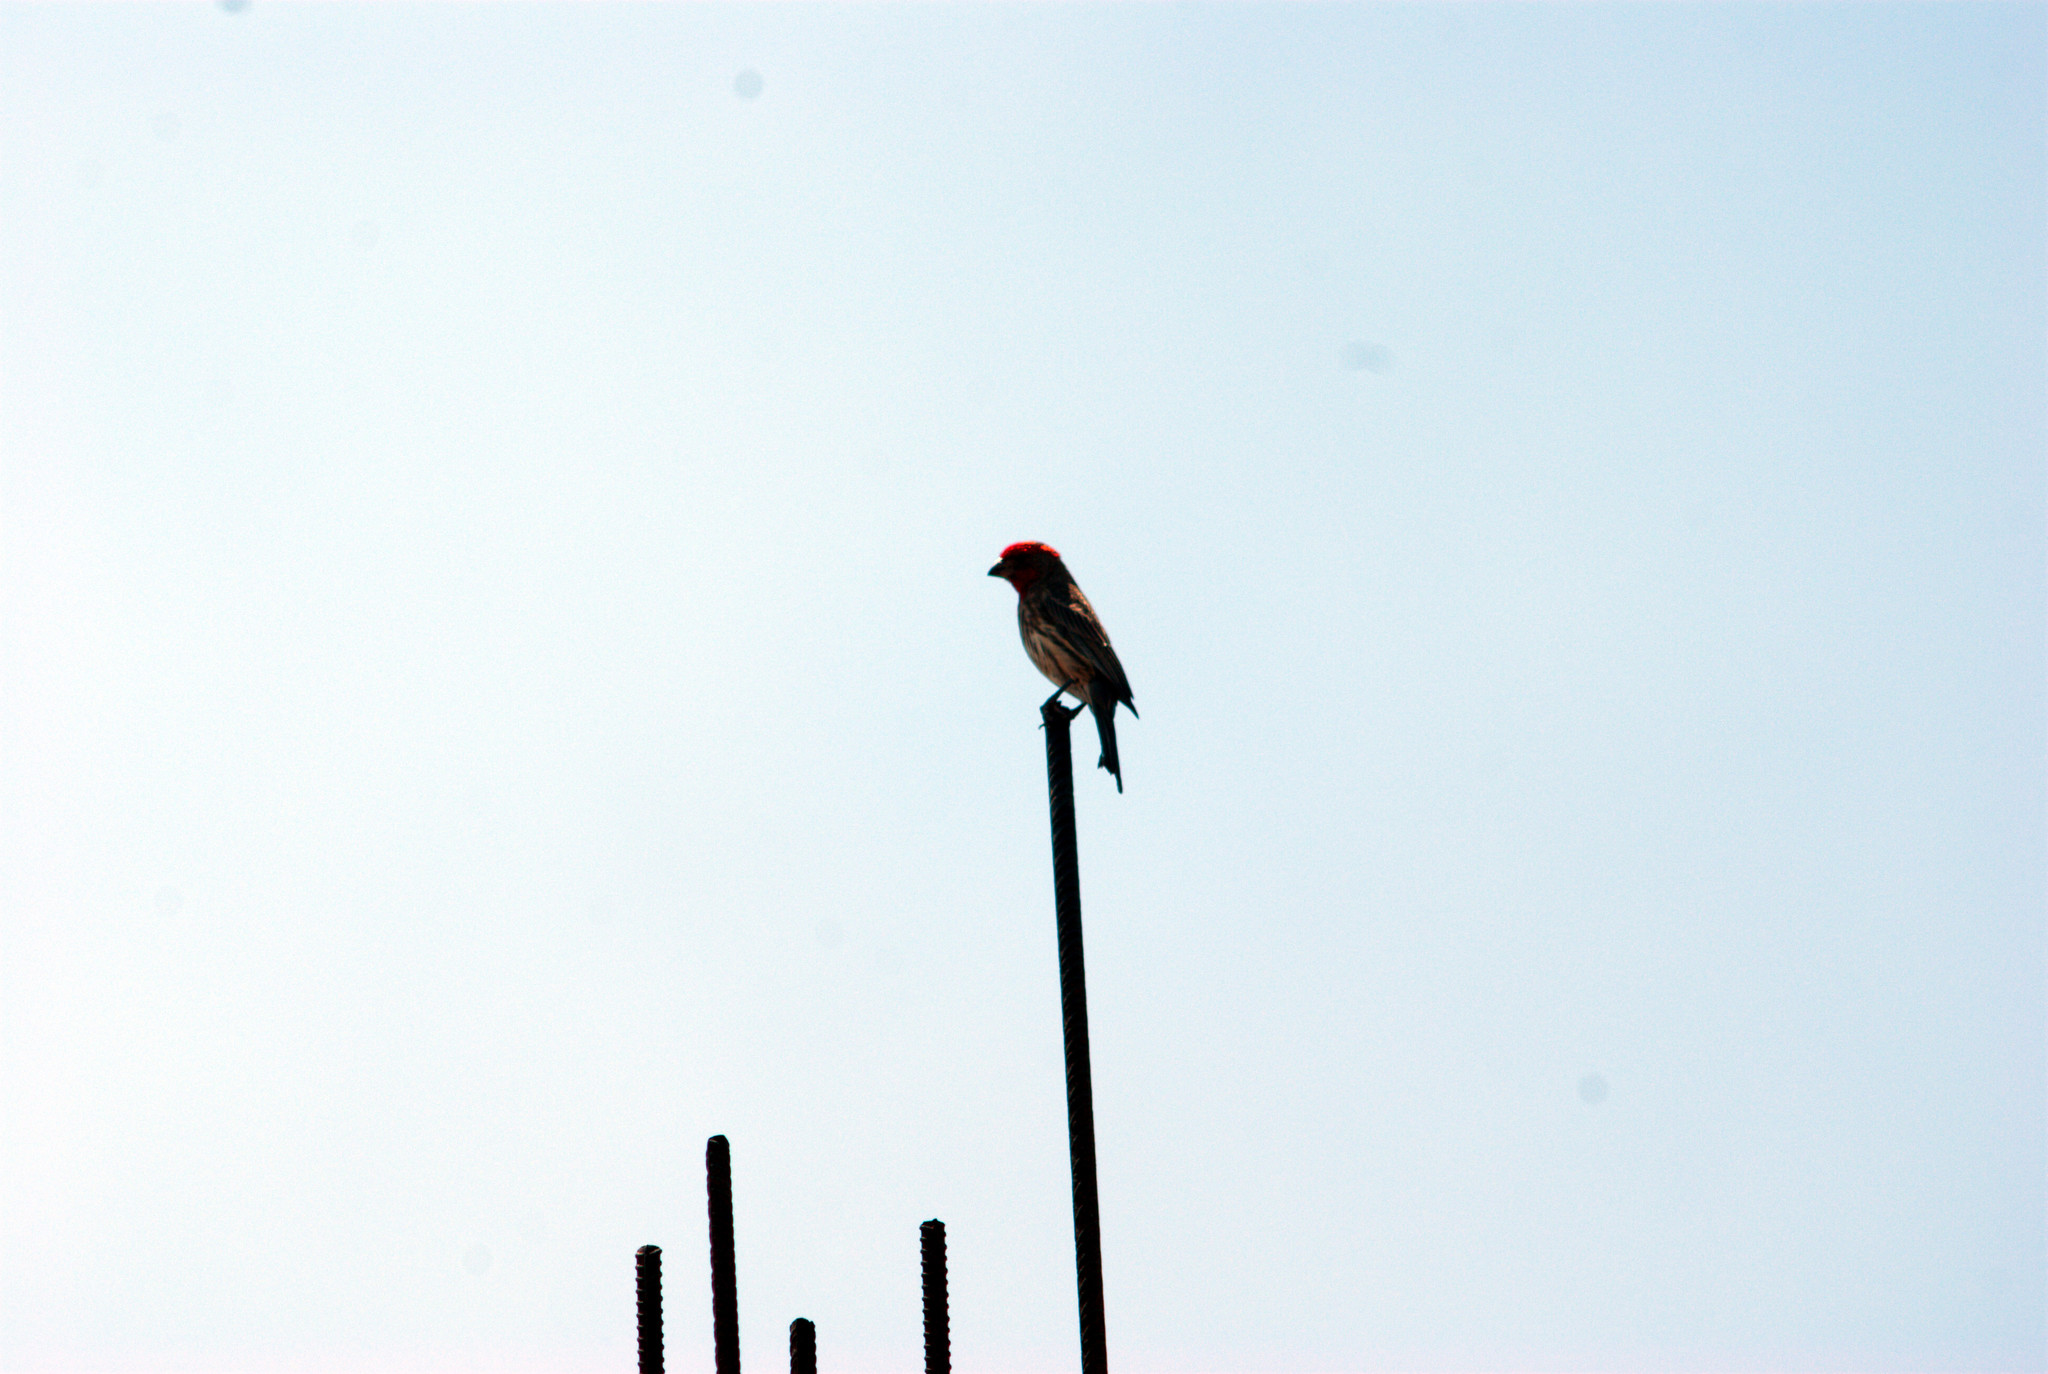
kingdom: Animalia
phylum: Chordata
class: Aves
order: Passeriformes
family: Fringillidae
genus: Haemorhous
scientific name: Haemorhous mexicanus
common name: House finch
